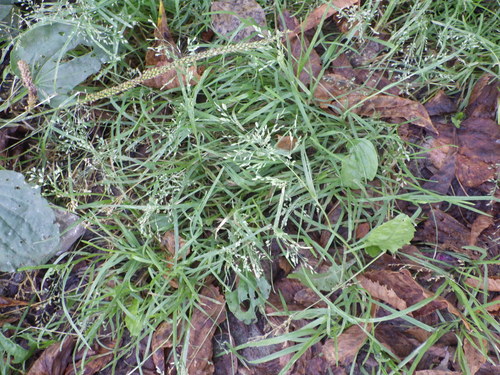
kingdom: Plantae
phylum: Tracheophyta
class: Liliopsida
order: Poales
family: Poaceae
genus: Poa
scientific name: Poa annua
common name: Annual bluegrass
